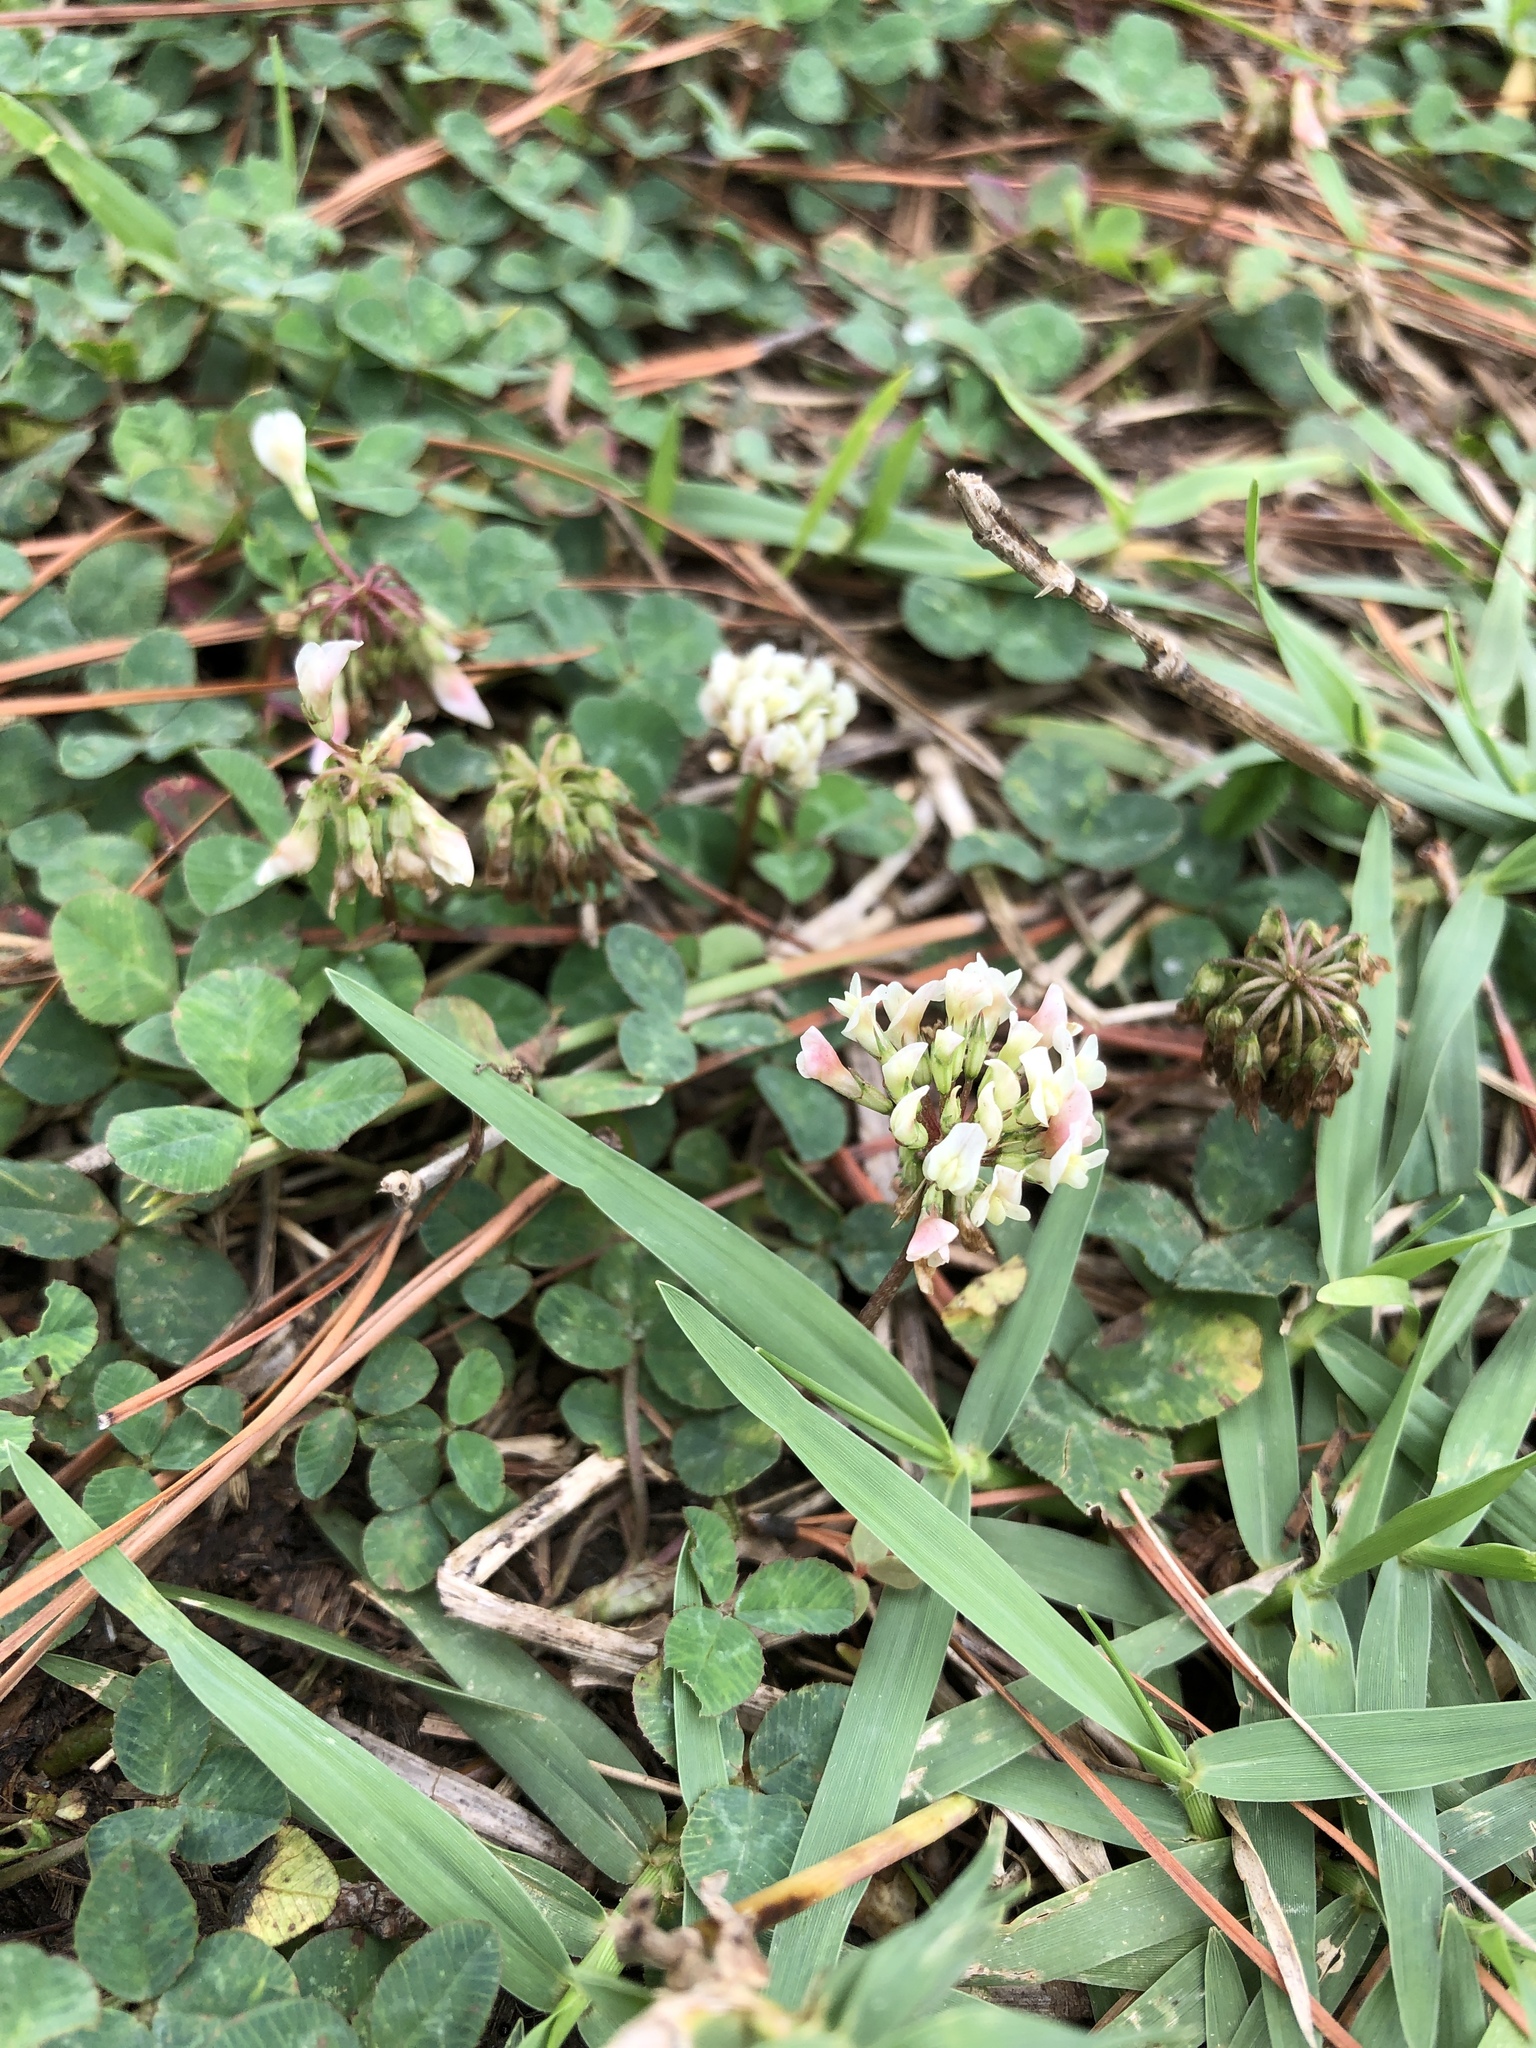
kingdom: Plantae
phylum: Tracheophyta
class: Magnoliopsida
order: Fabales
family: Fabaceae
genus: Trifolium
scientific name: Trifolium repens
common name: White clover
